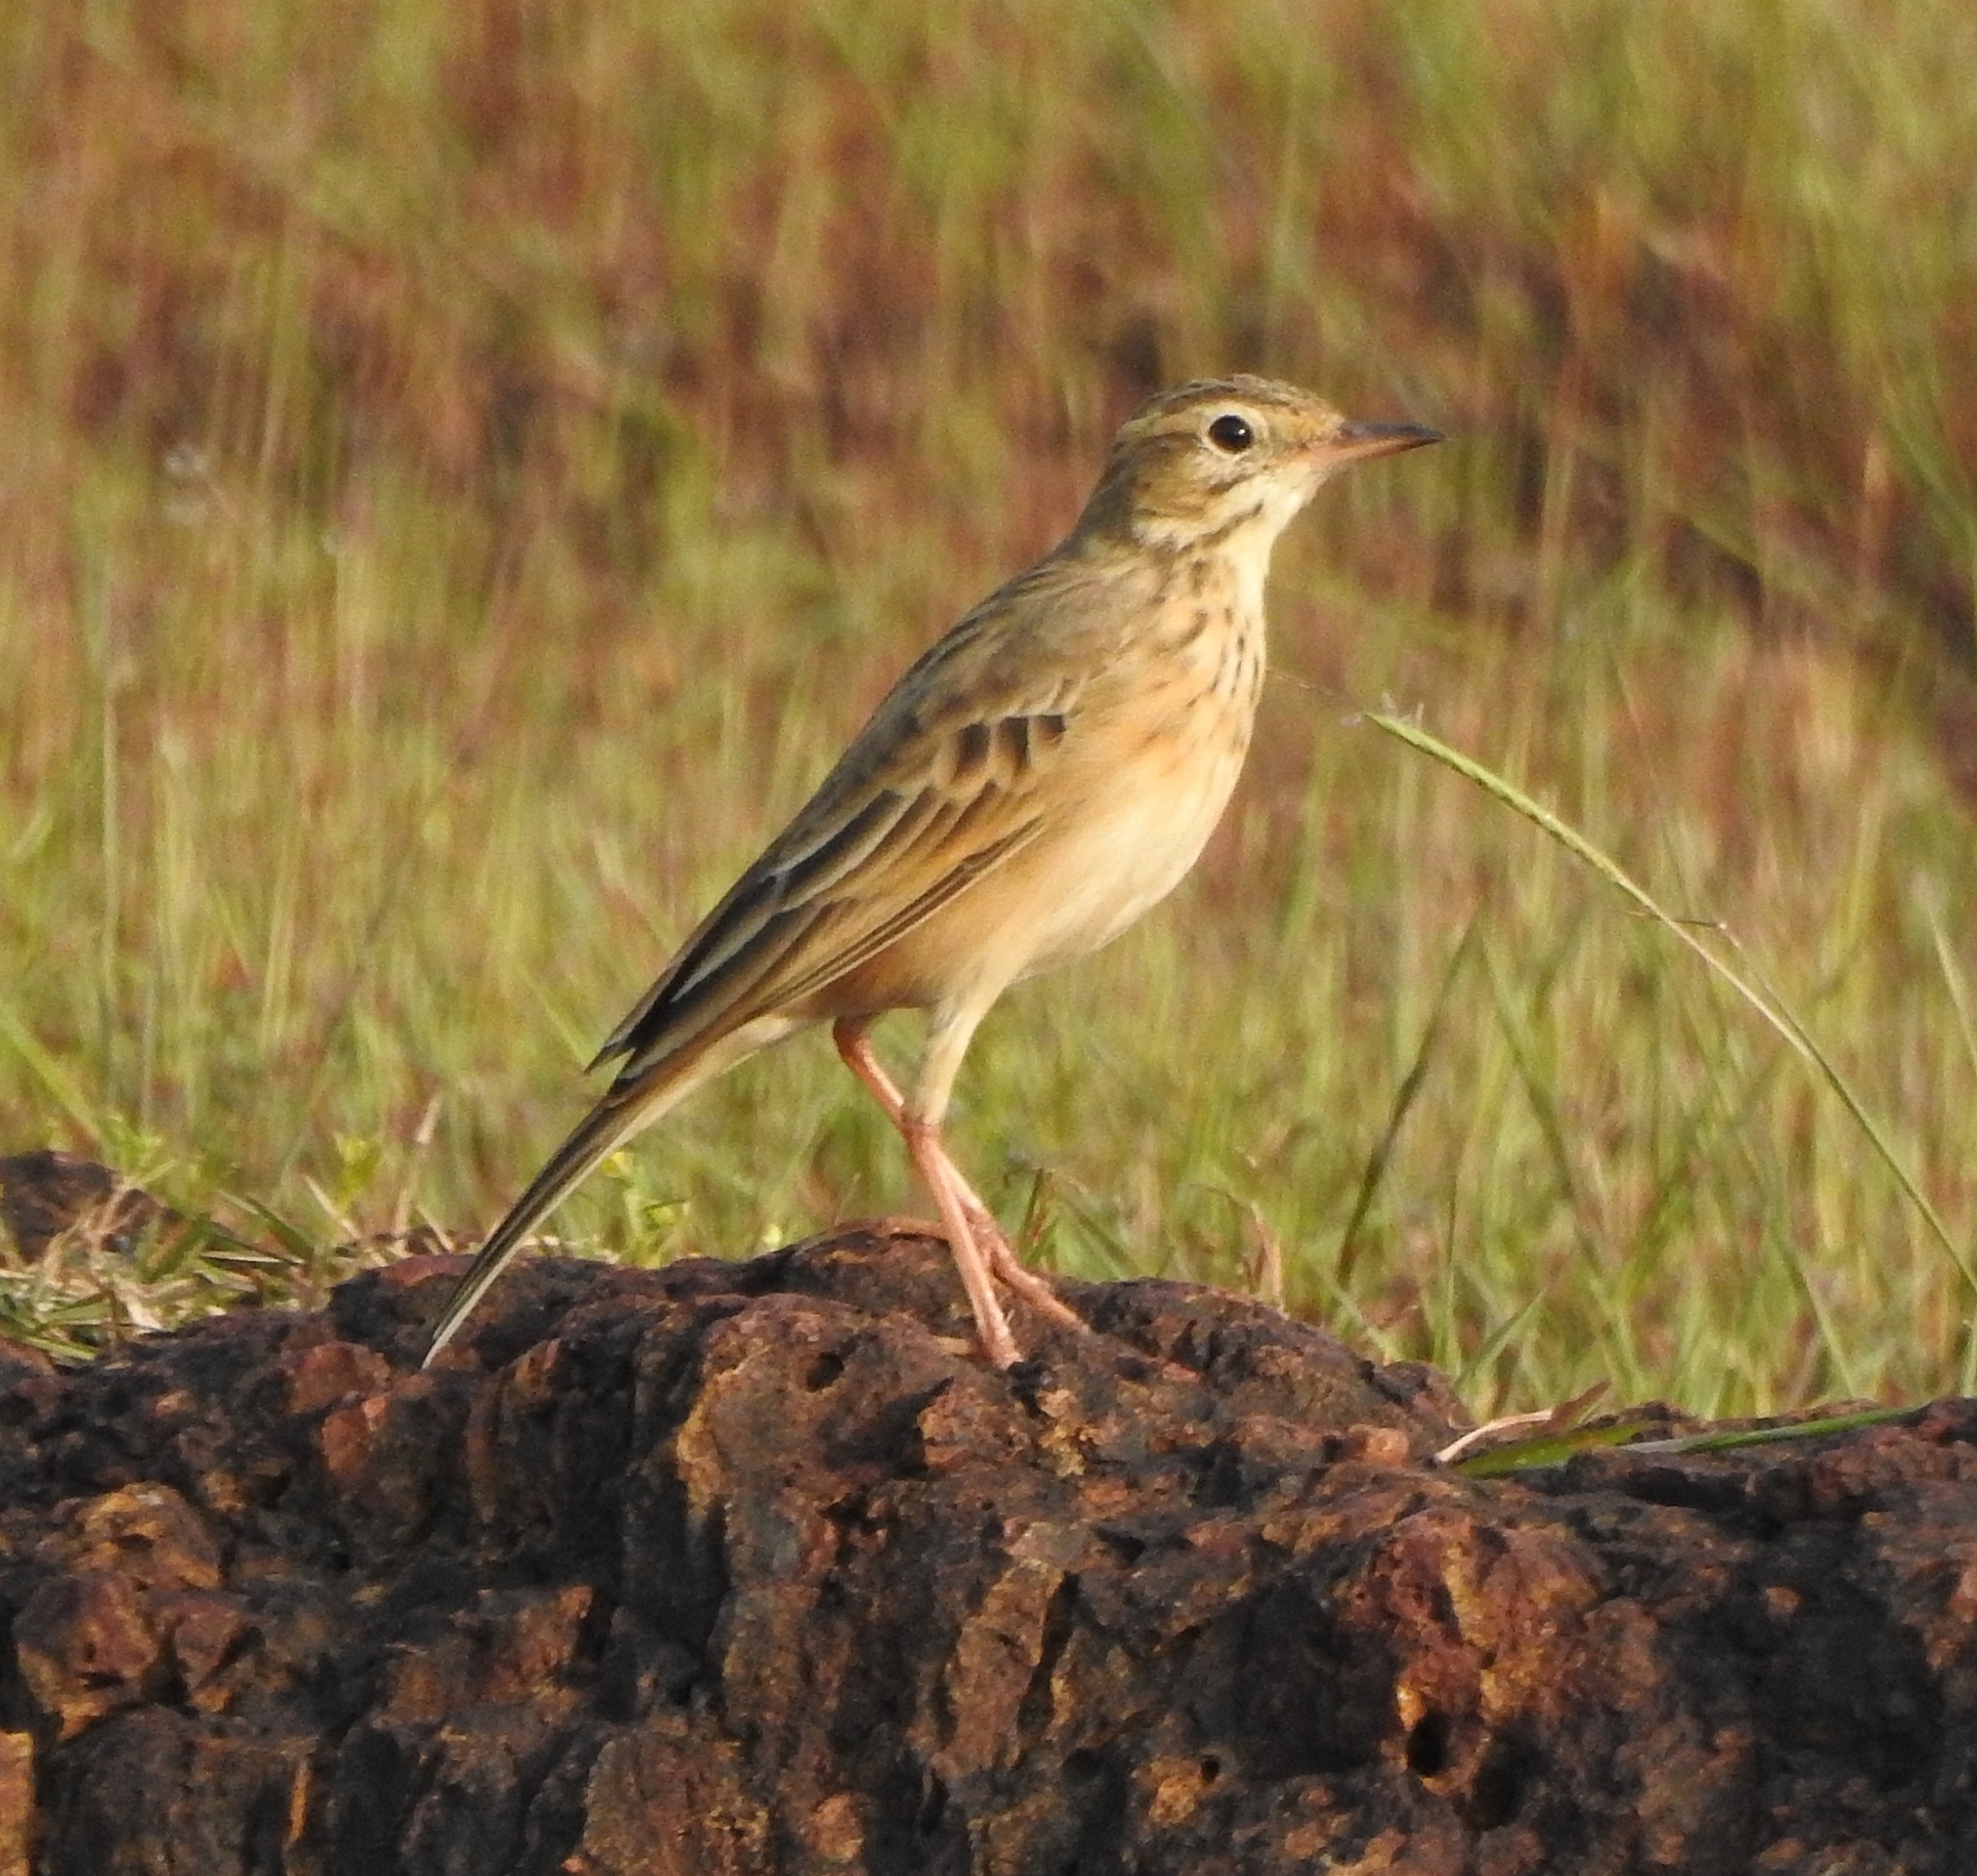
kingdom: Animalia
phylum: Chordata
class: Aves
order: Passeriformes
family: Motacillidae
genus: Anthus
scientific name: Anthus rufulus
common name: Paddyfield pipit
